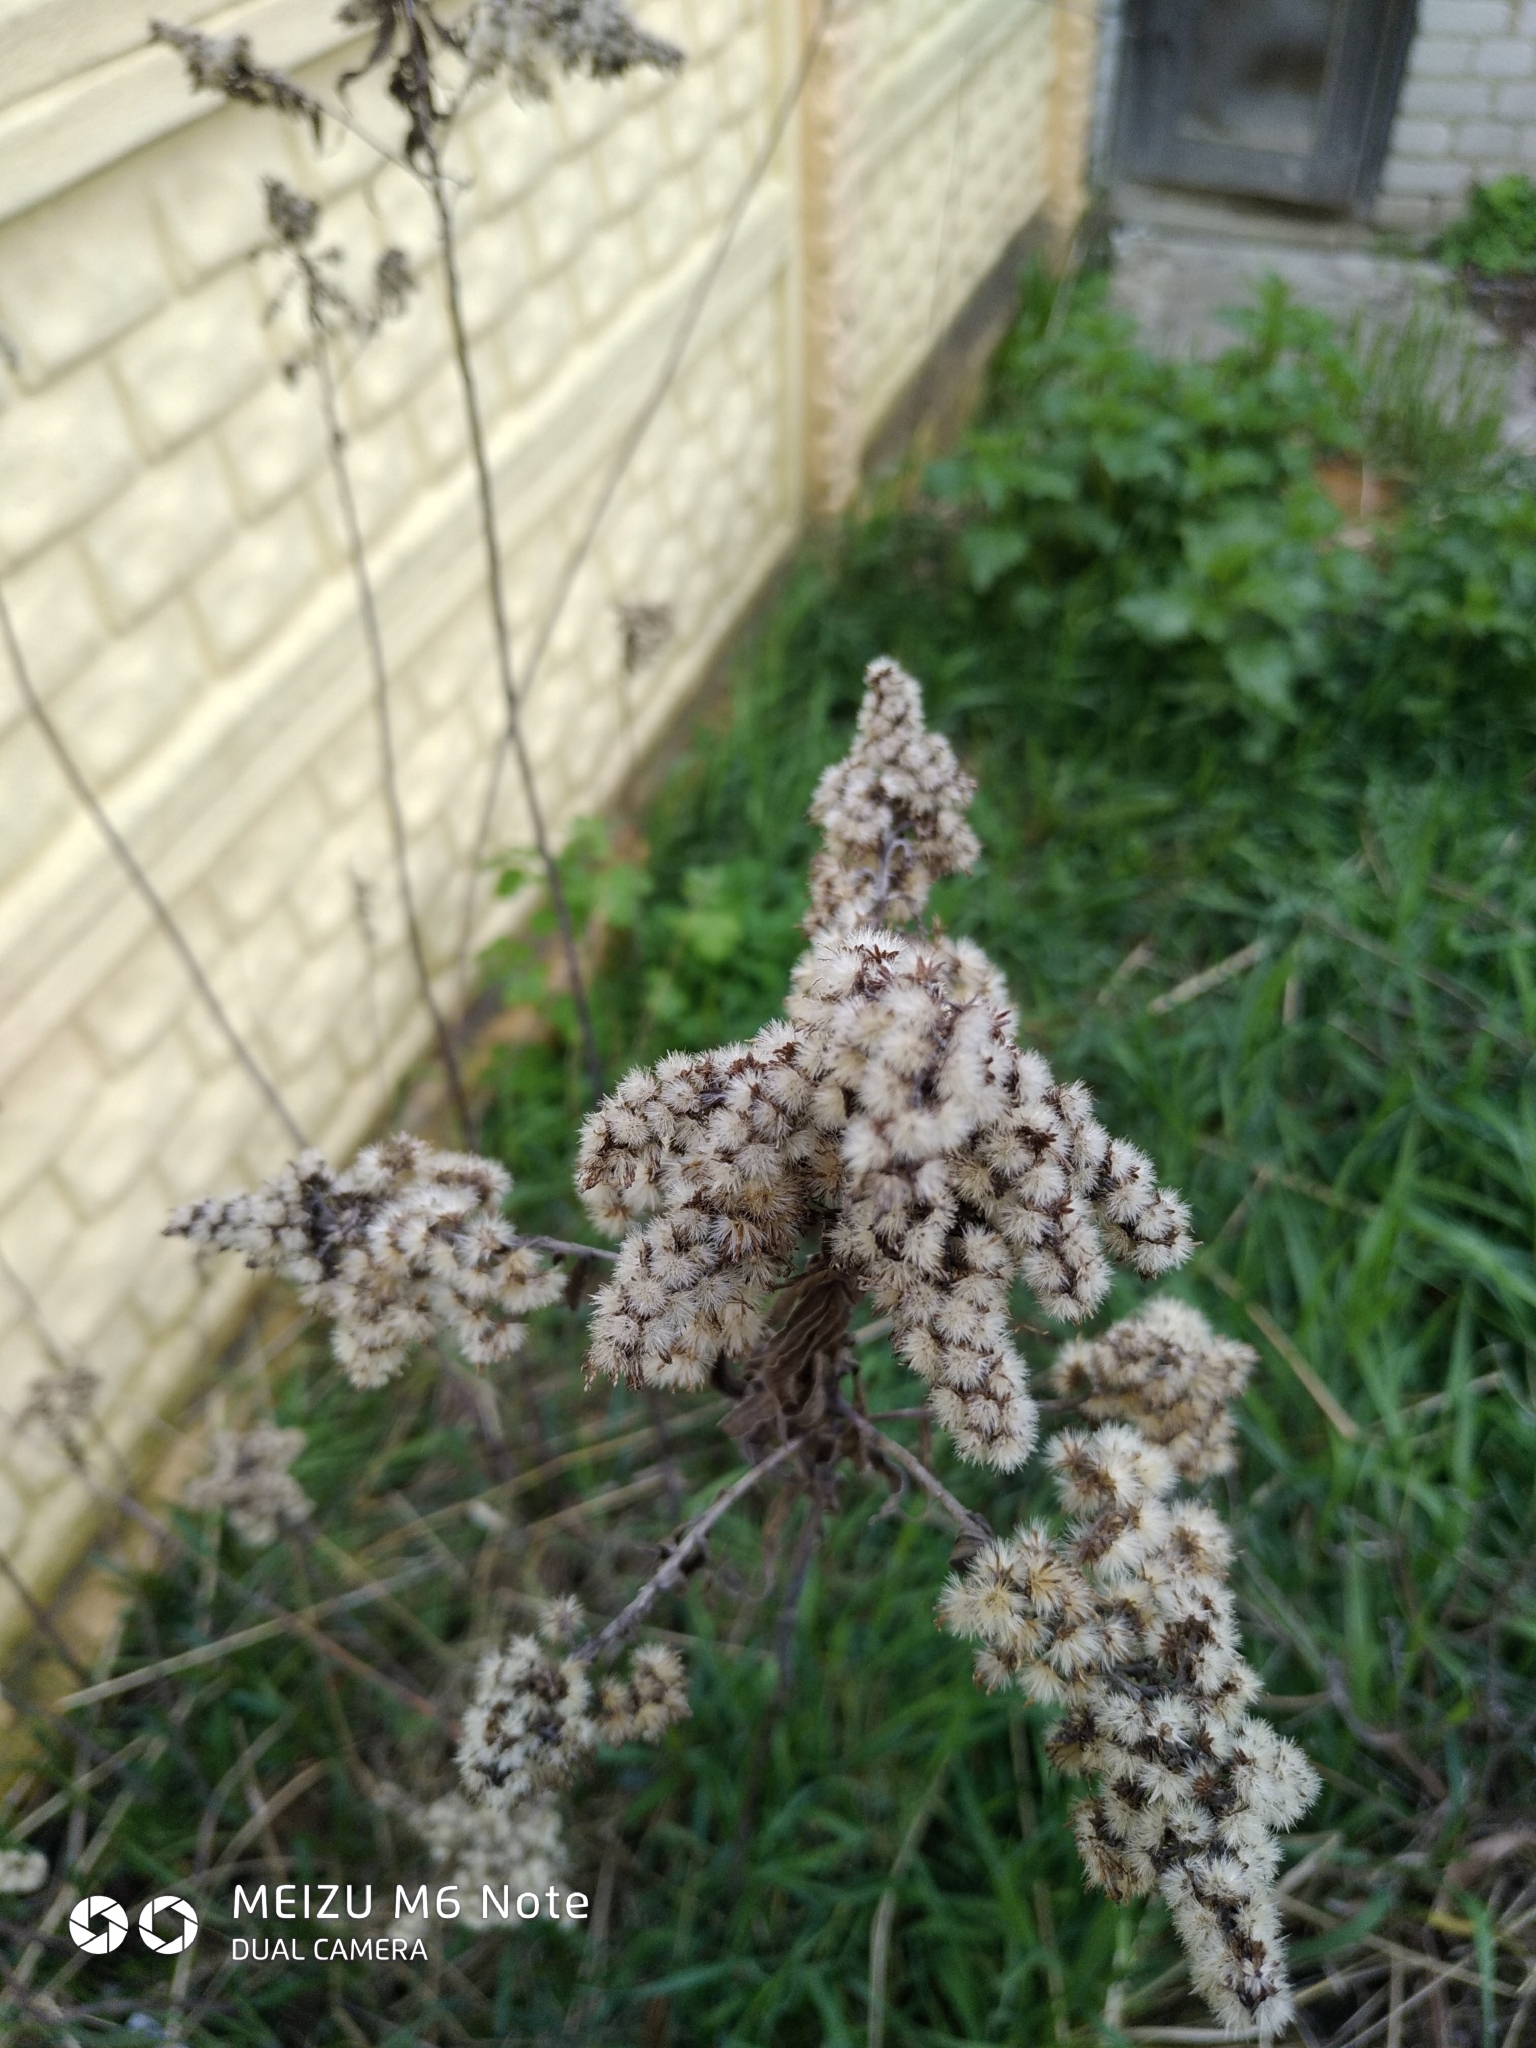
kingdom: Plantae
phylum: Tracheophyta
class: Magnoliopsida
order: Asterales
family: Asteraceae
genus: Solidago
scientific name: Solidago canadensis
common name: Canada goldenrod
